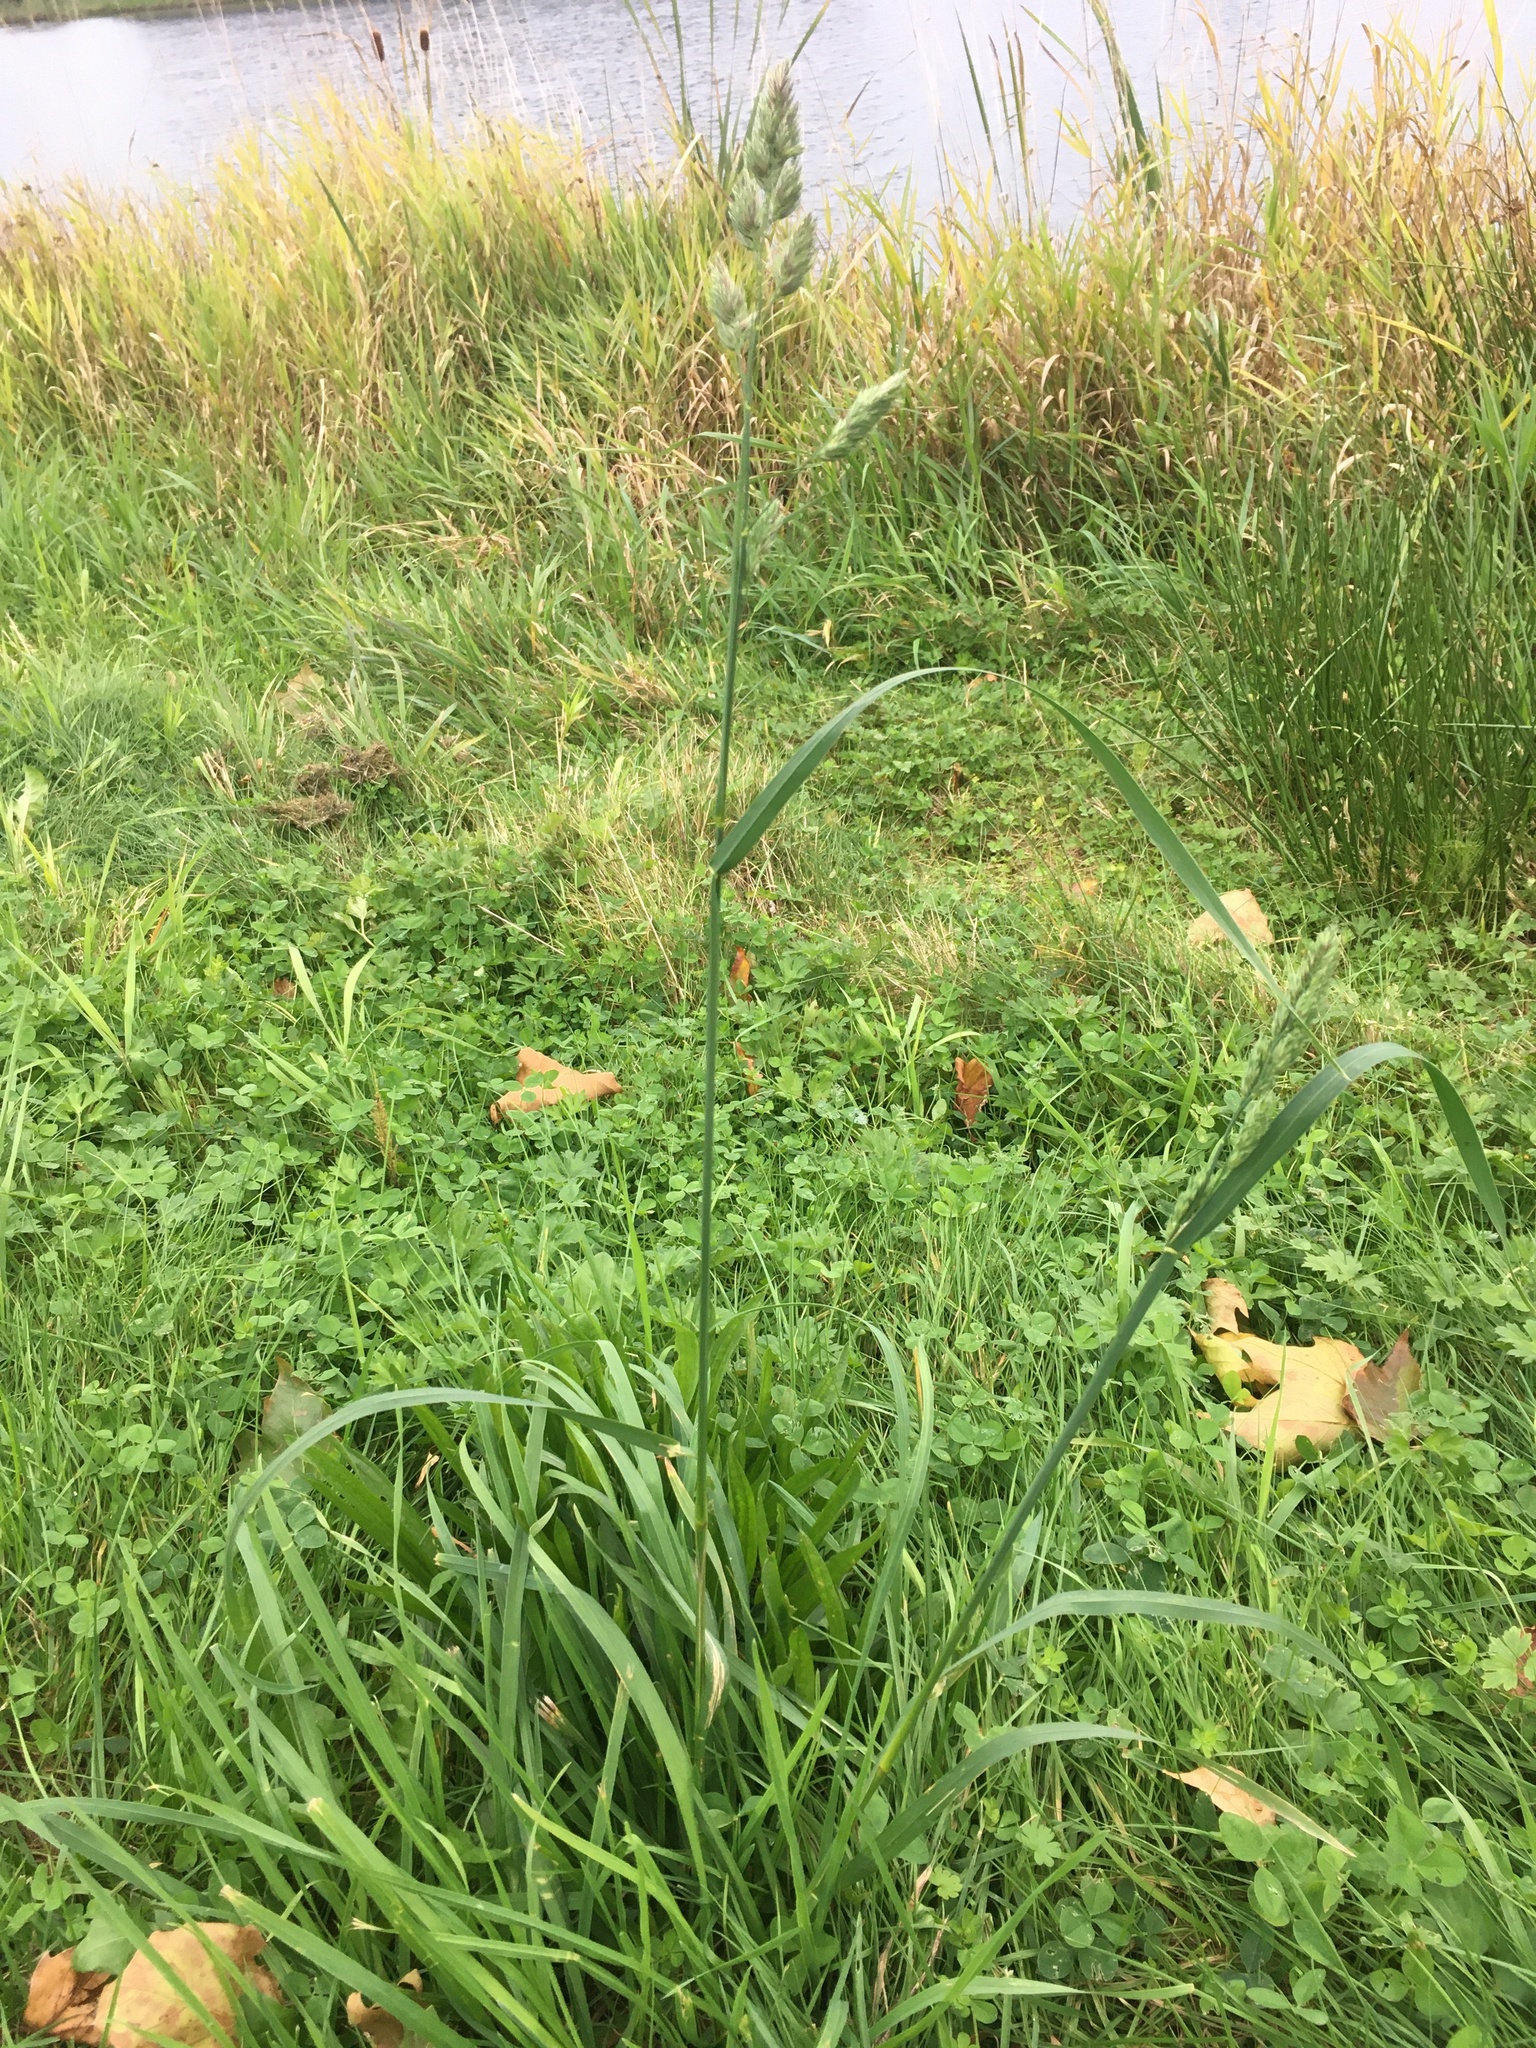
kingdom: Plantae
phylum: Tracheophyta
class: Liliopsida
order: Poales
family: Poaceae
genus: Dactylis
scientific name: Dactylis glomerata
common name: Orchardgrass
